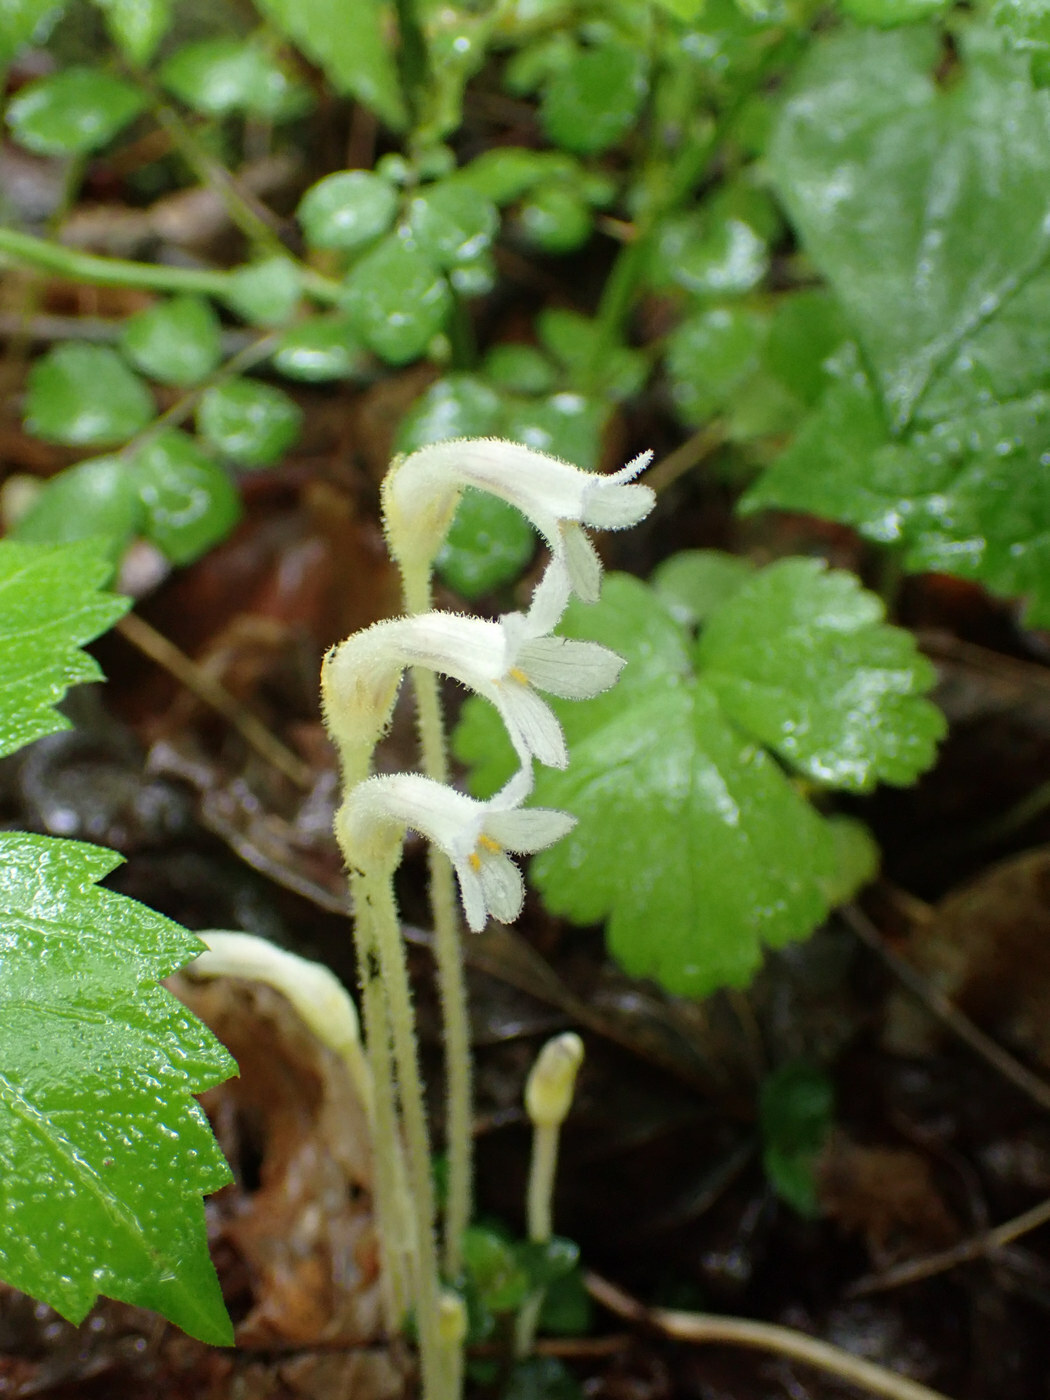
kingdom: Plantae
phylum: Tracheophyta
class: Magnoliopsida
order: Lamiales
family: Orobanchaceae
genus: Aphyllon
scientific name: Aphyllon uniflorum
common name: One-flowered broomrape
